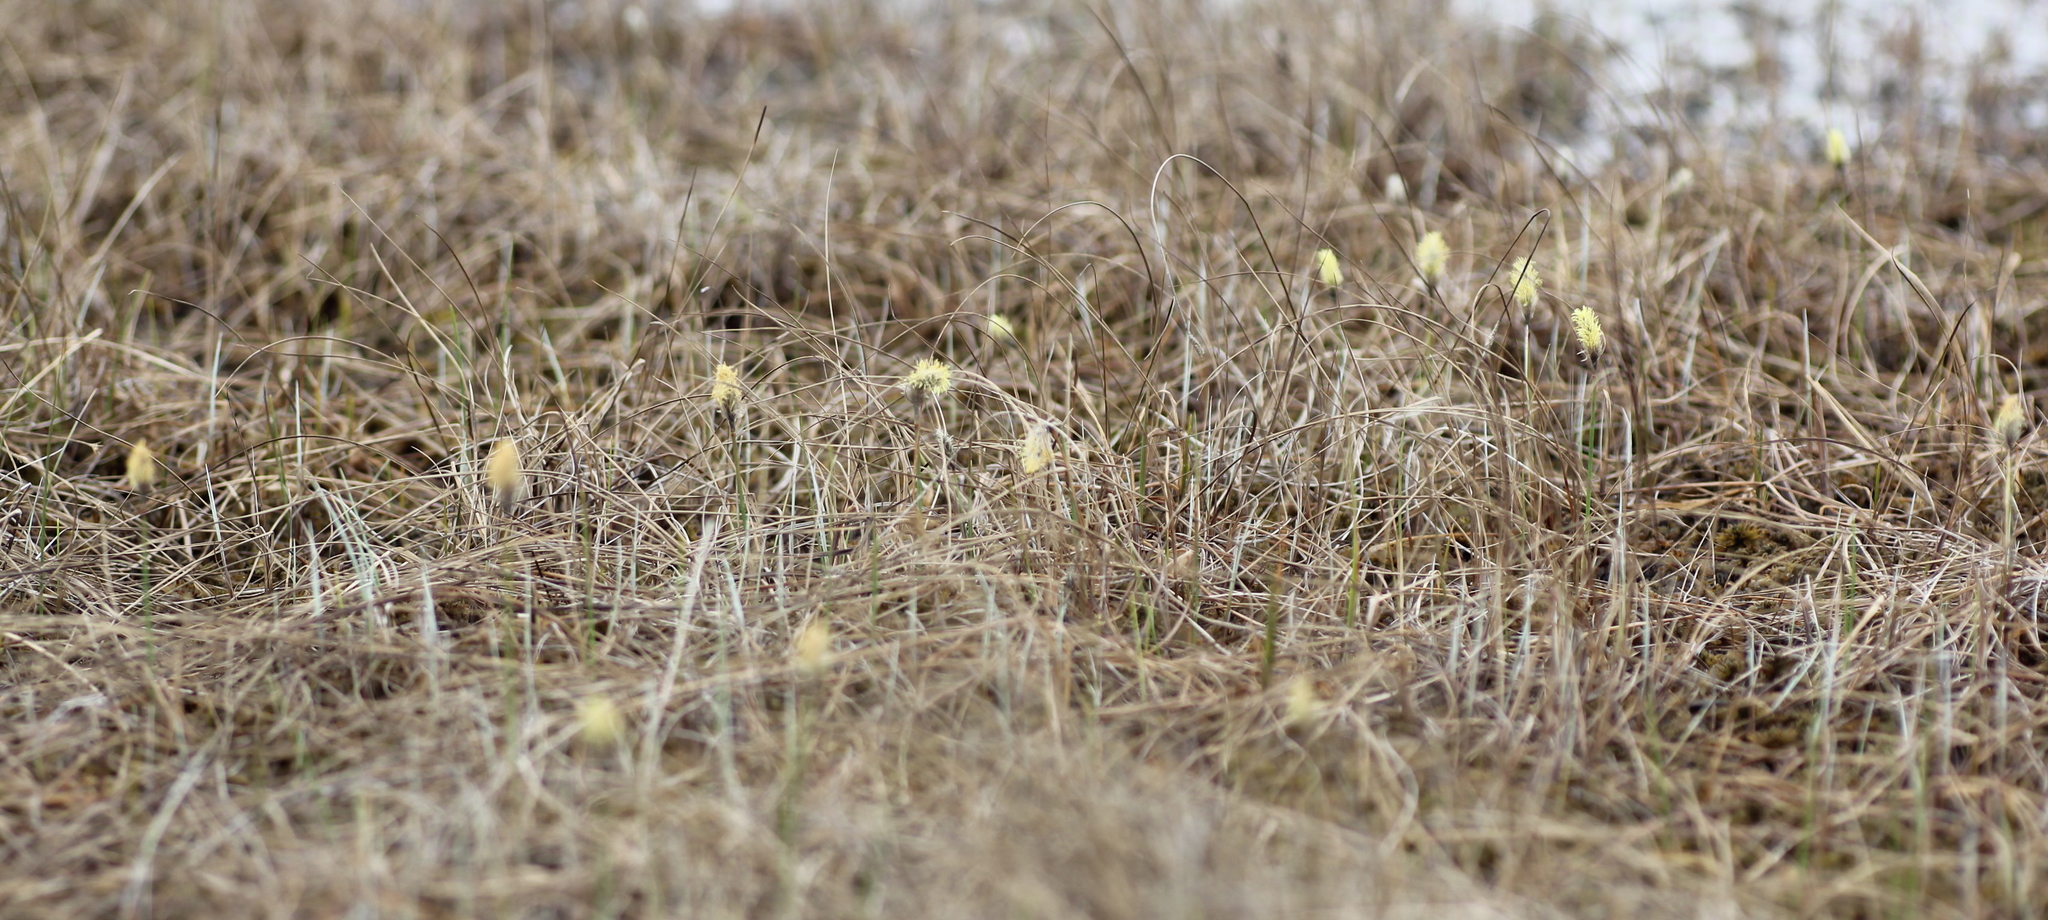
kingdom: Plantae
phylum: Tracheophyta
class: Liliopsida
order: Poales
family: Cyperaceae
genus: Eriophorum
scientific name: Eriophorum chamissonis
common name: Chamisso's cottongrass
